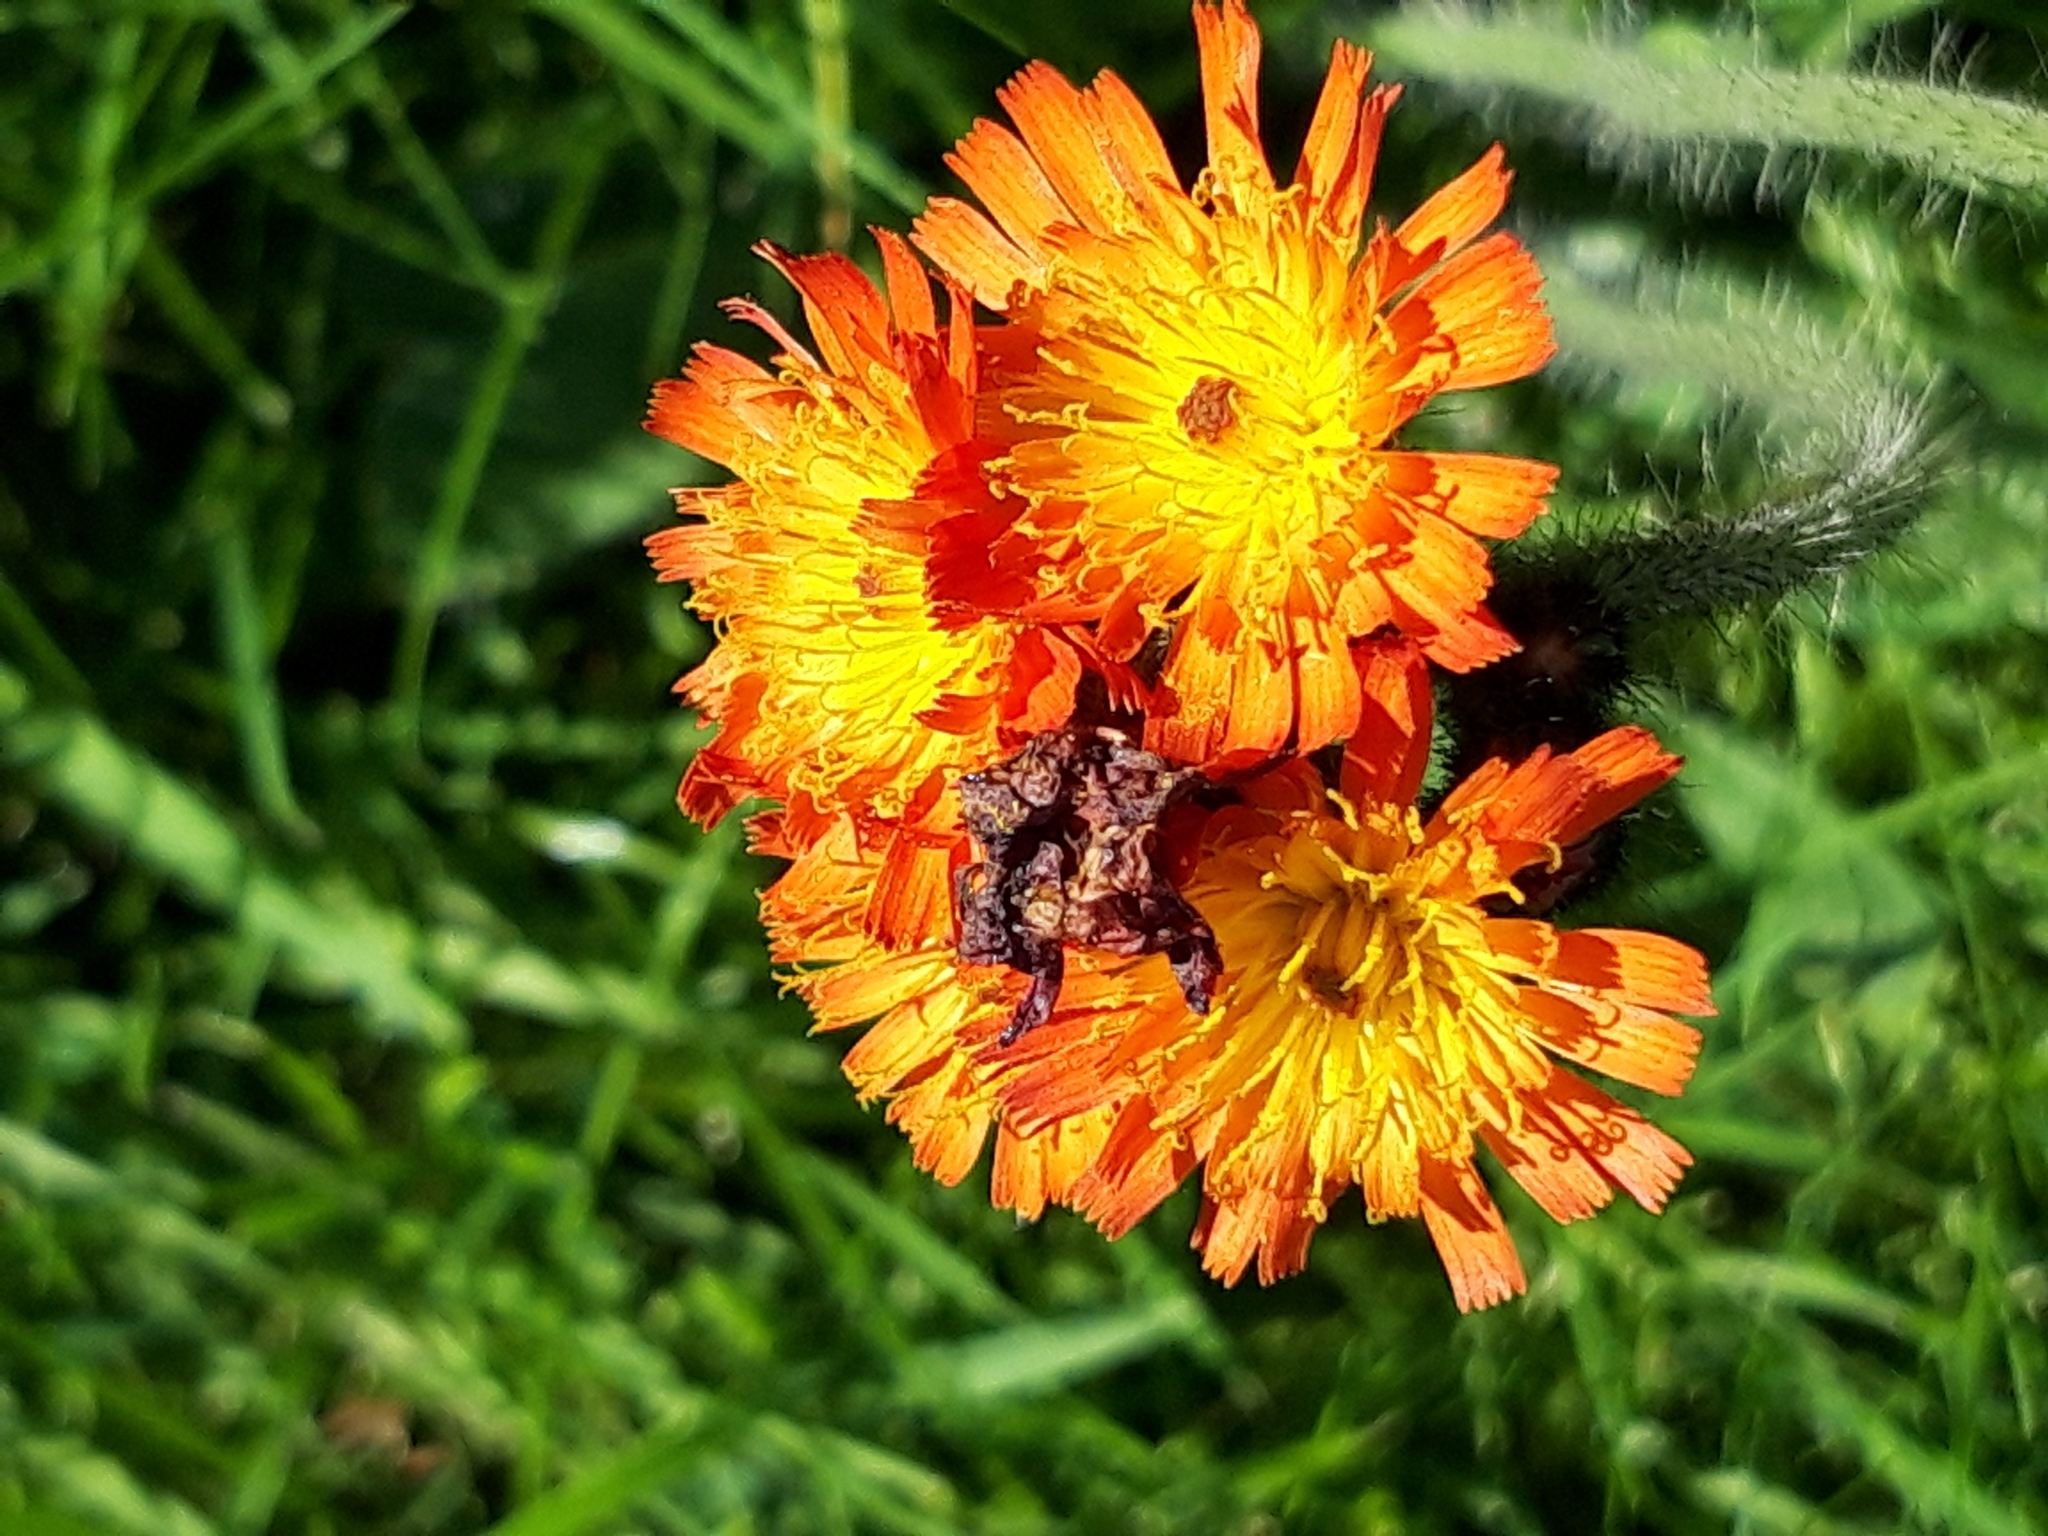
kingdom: Plantae
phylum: Tracheophyta
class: Magnoliopsida
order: Asterales
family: Asteraceae
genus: Pilosella
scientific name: Pilosella aurantiaca
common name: Fox-and-cubs
